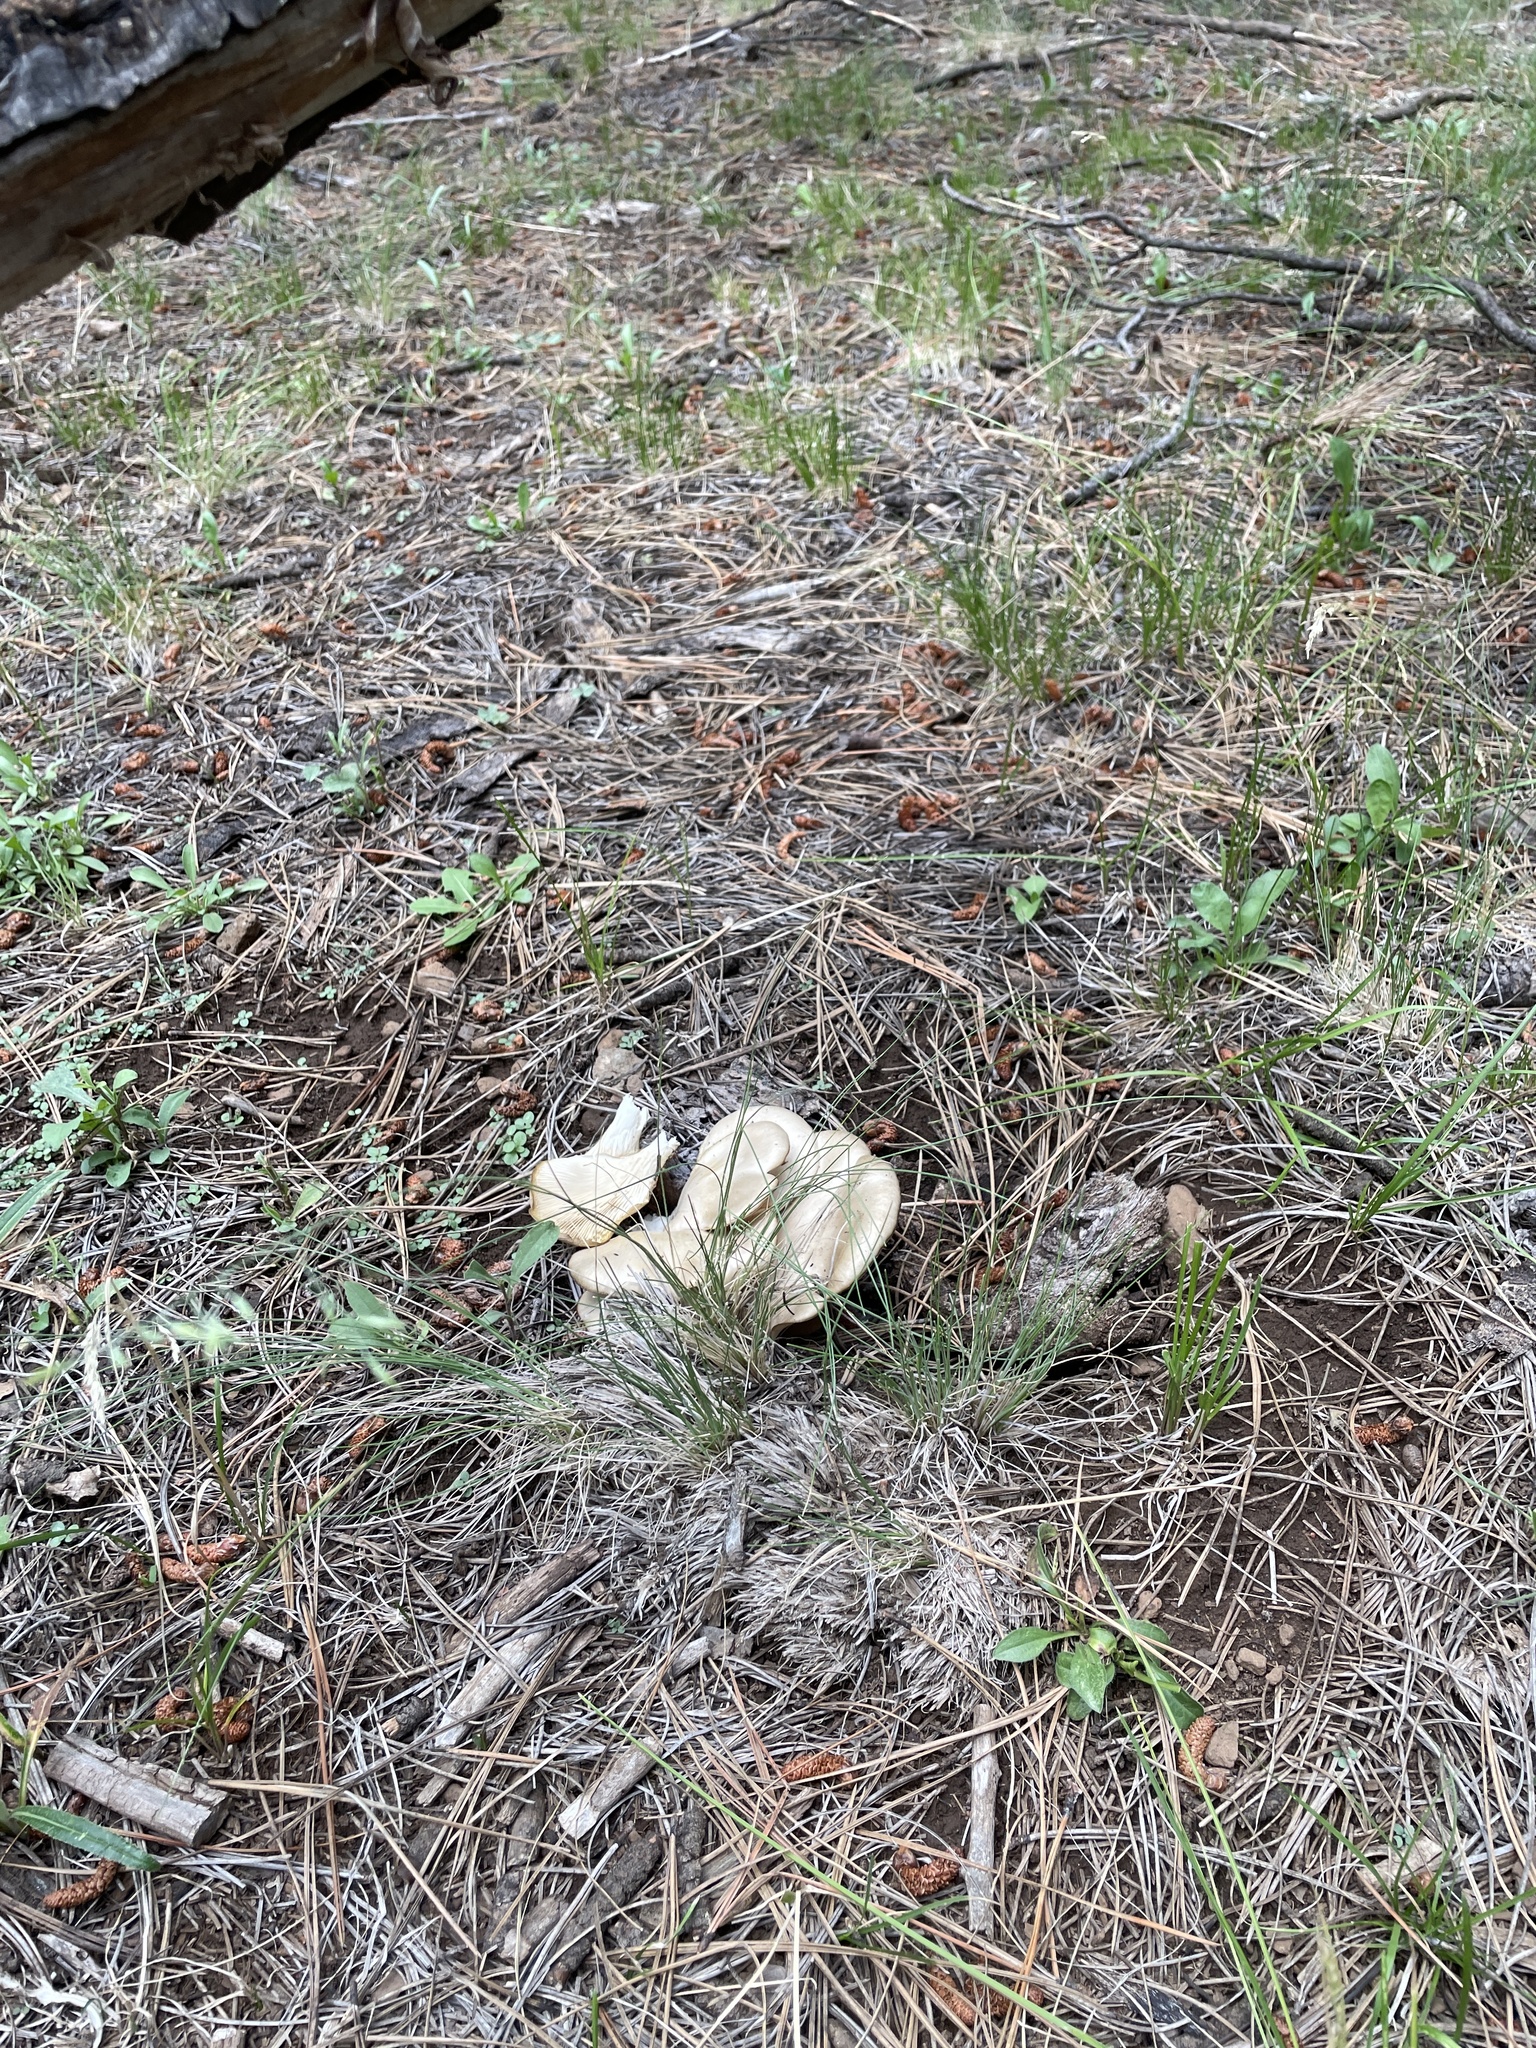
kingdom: Fungi
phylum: Basidiomycota
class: Agaricomycetes
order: Agaricales
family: Pleurotaceae
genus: Pleurotus
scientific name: Pleurotus populinus
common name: Aspen oyster mushroom
